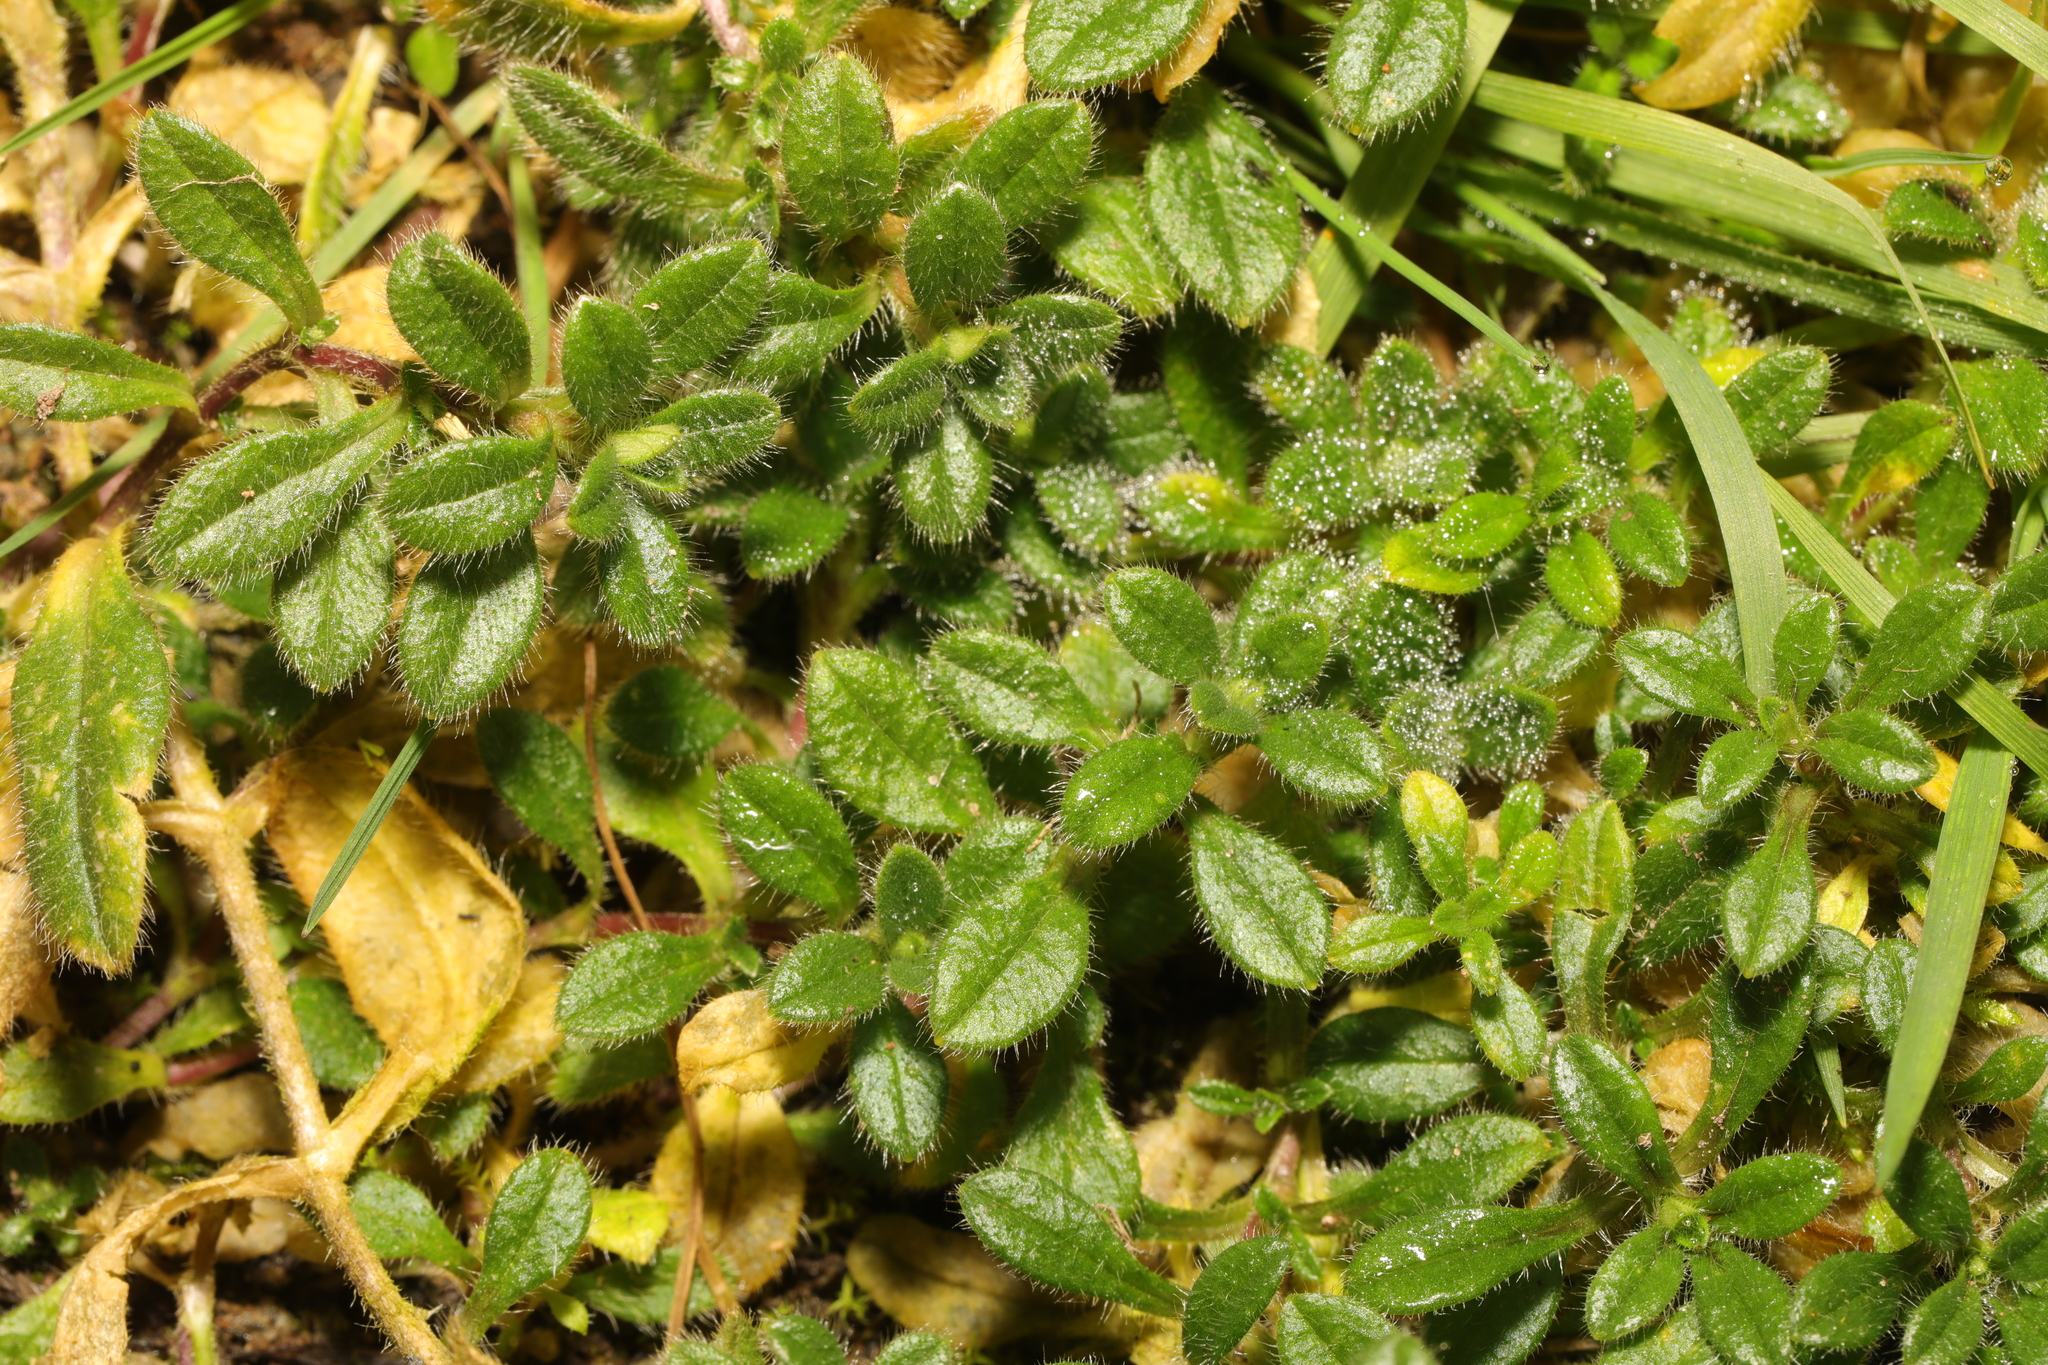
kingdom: Plantae
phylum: Tracheophyta
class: Magnoliopsida
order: Caryophyllales
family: Caryophyllaceae
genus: Cerastium
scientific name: Cerastium fontanum
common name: Common mouse-ear
